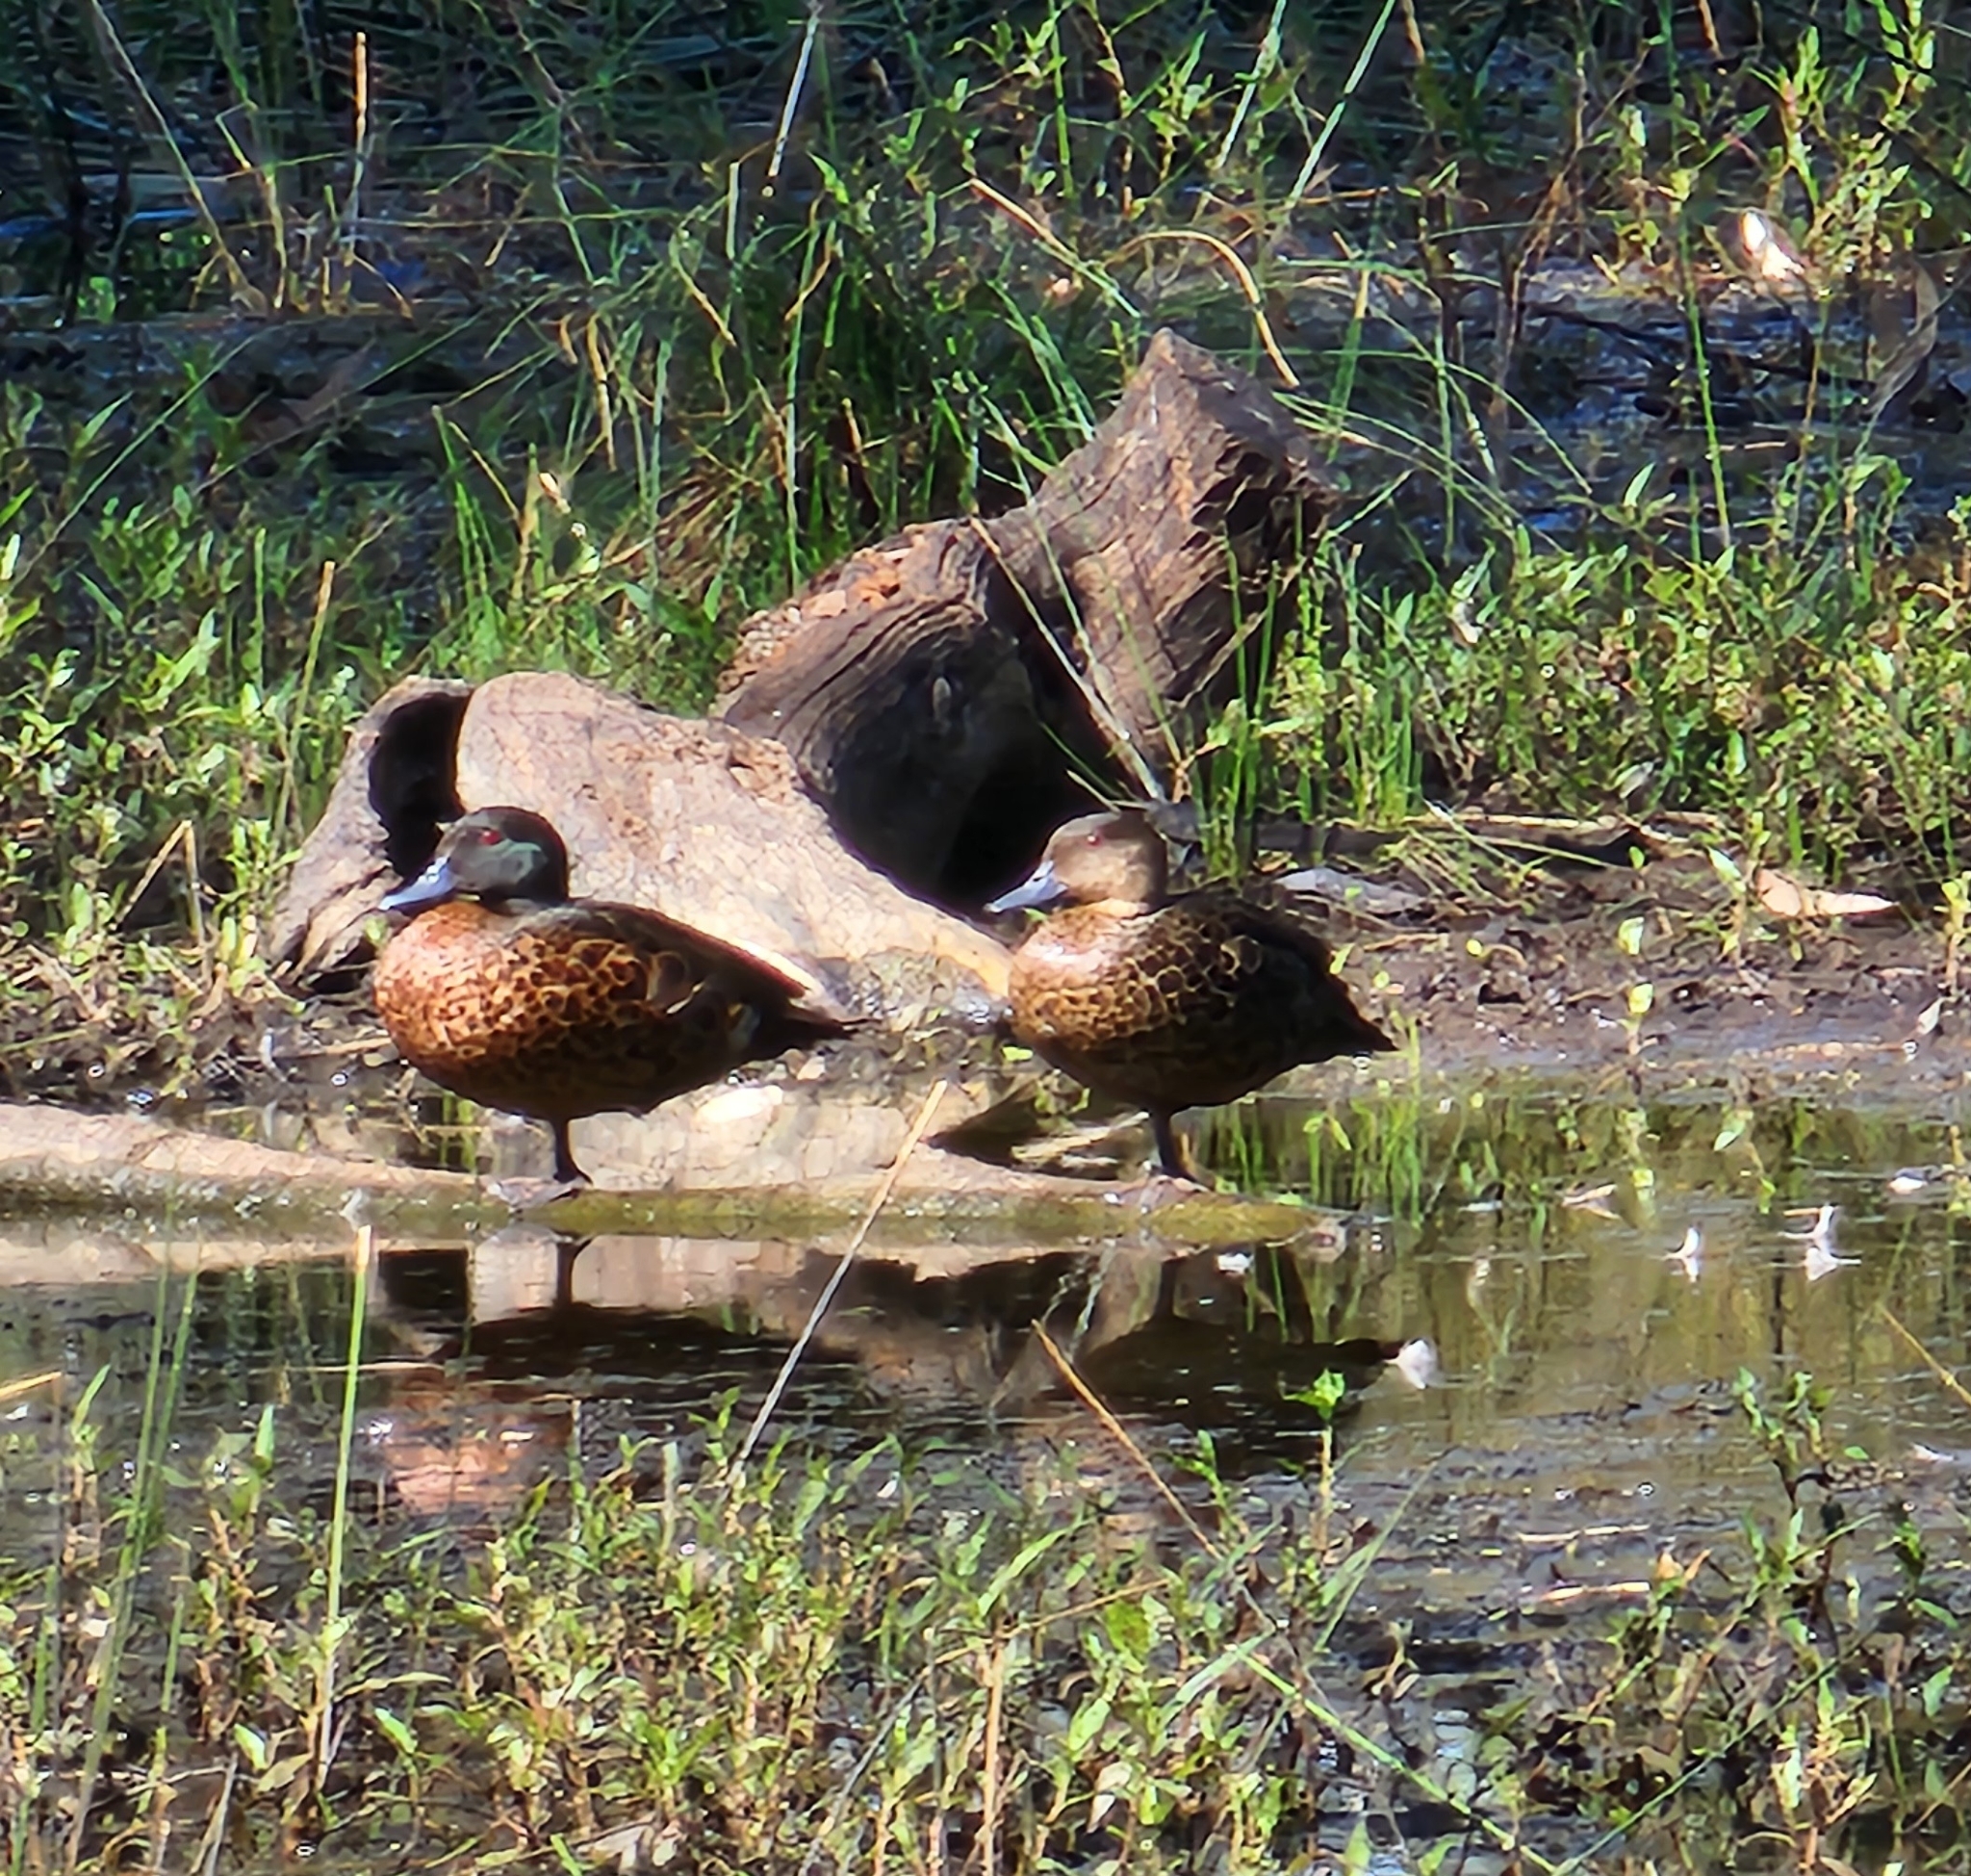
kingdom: Animalia
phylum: Chordata
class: Aves
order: Anseriformes
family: Anatidae
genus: Anas
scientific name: Anas castanea
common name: Chestnut teal
